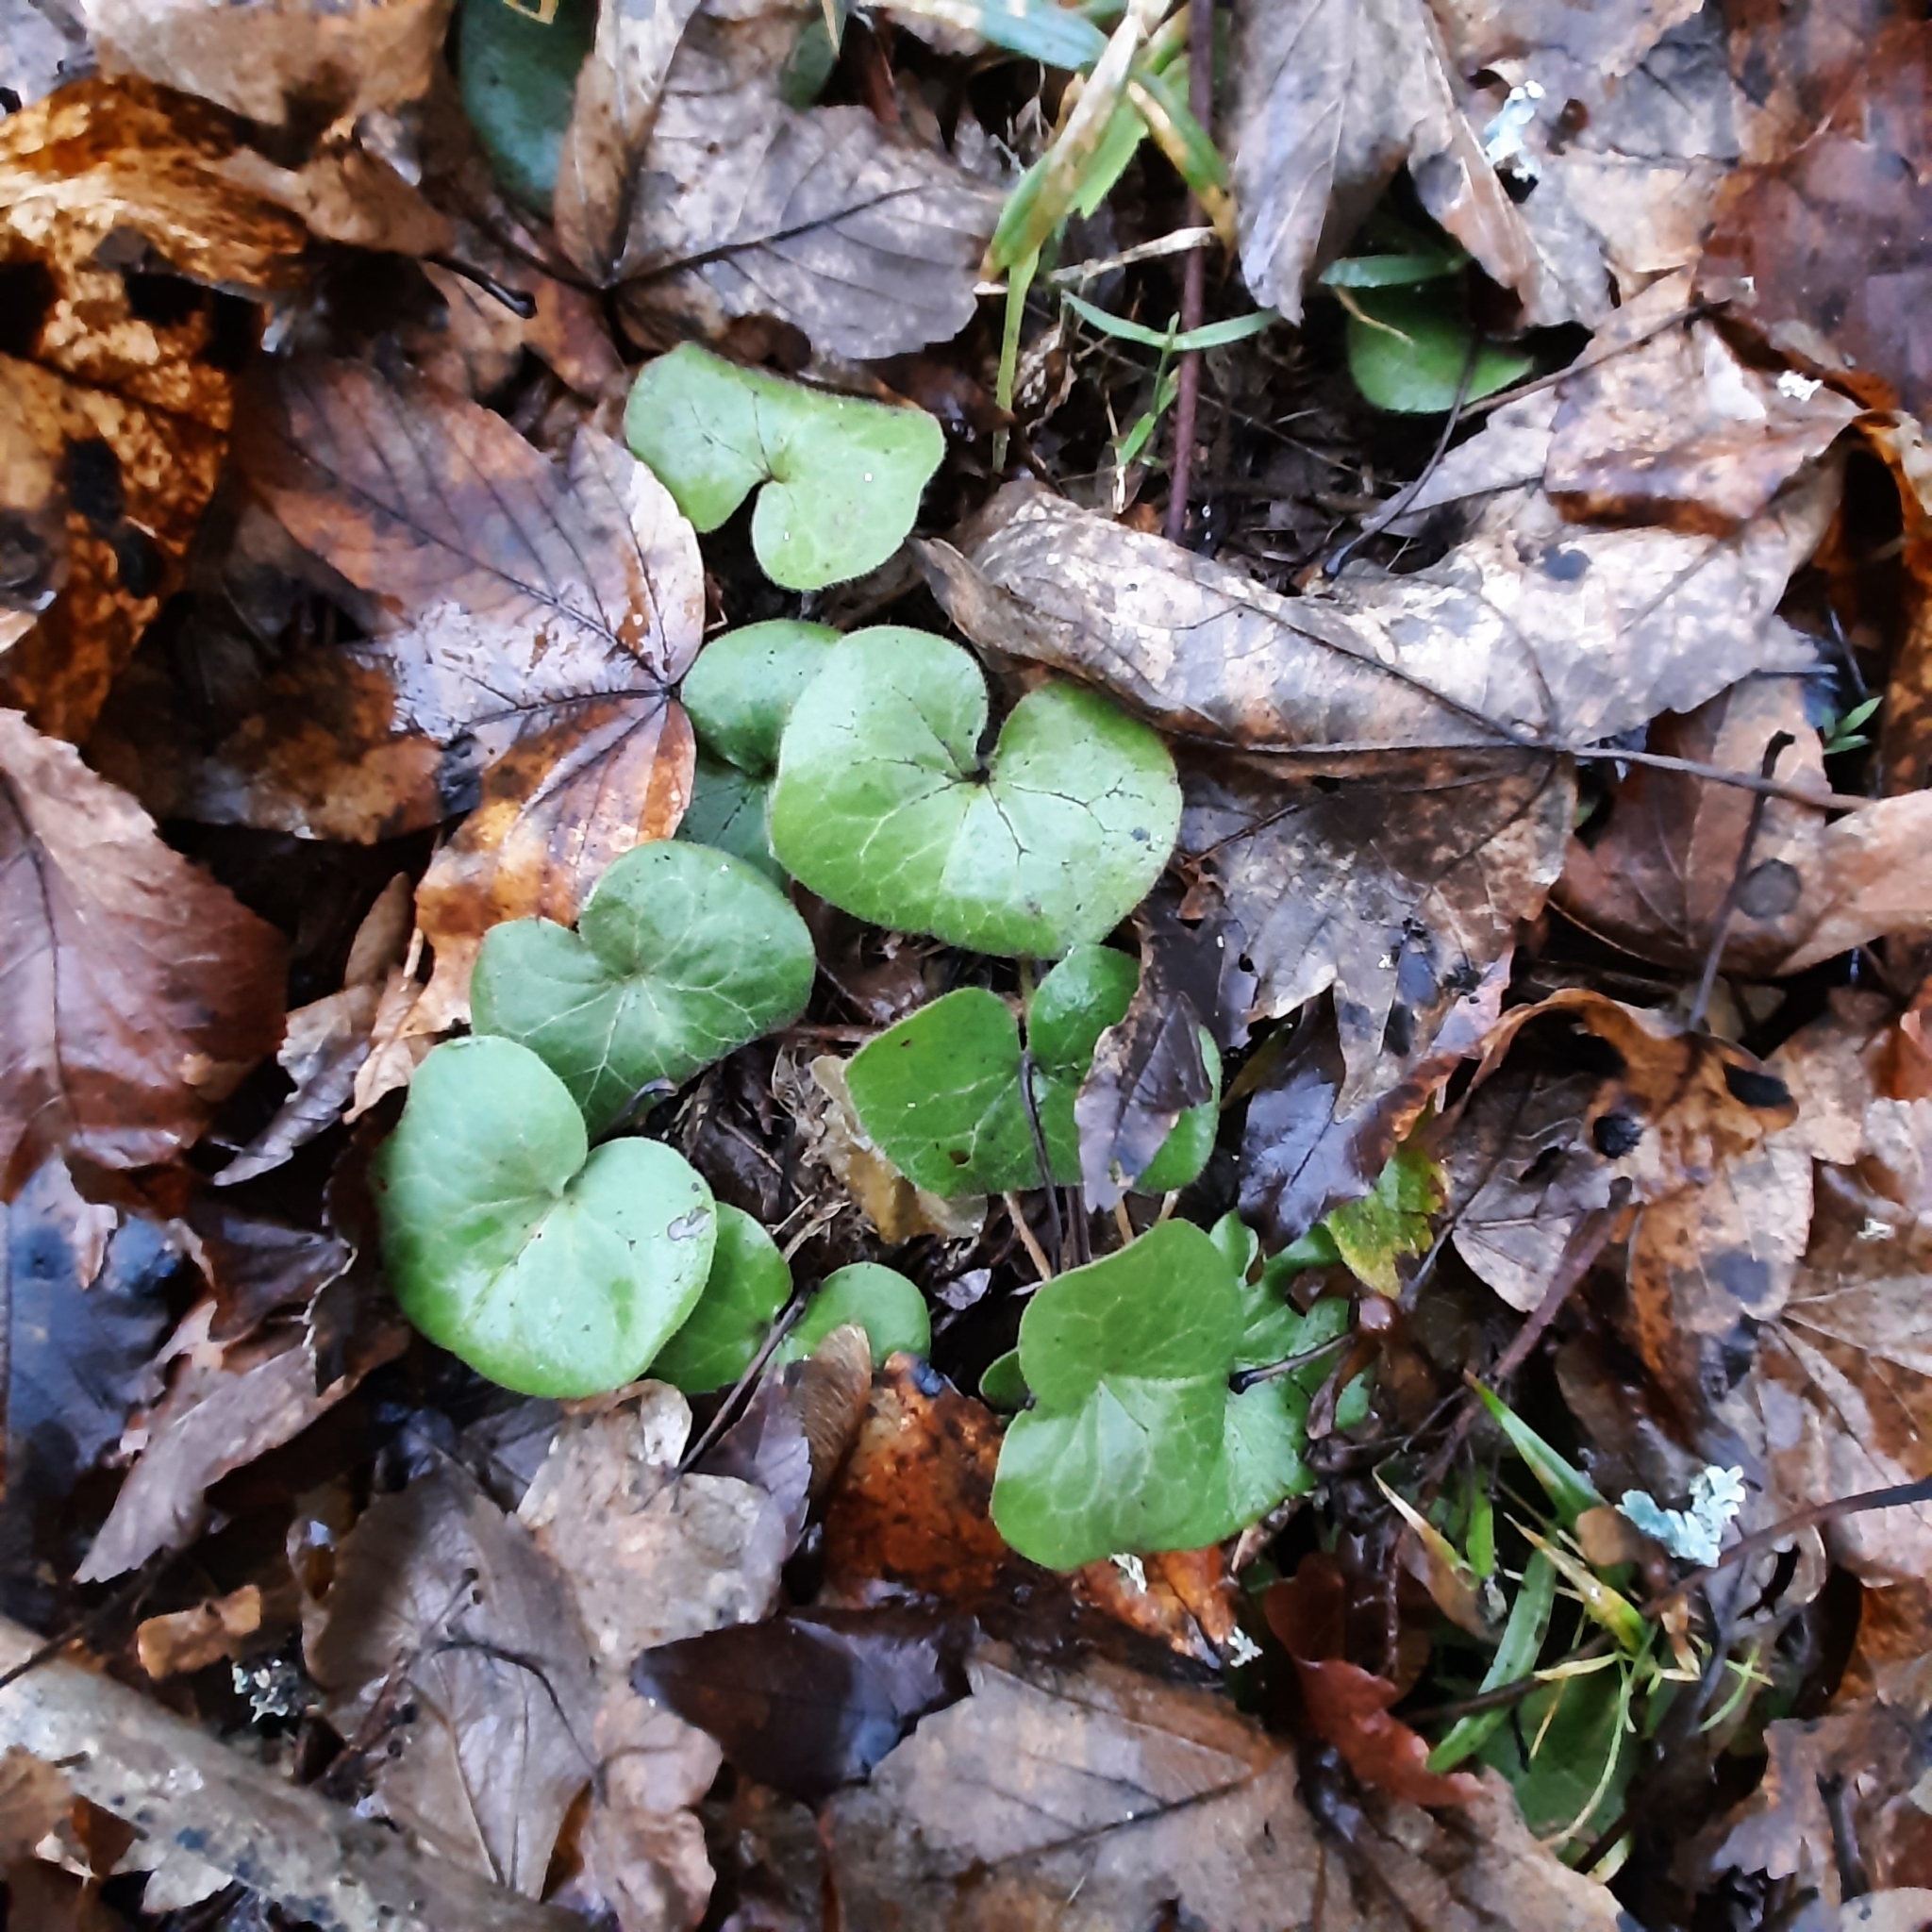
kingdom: Plantae
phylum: Tracheophyta
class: Magnoliopsida
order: Piperales
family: Aristolochiaceae
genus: Asarum
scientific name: Asarum europaeum
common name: Asarabacca
